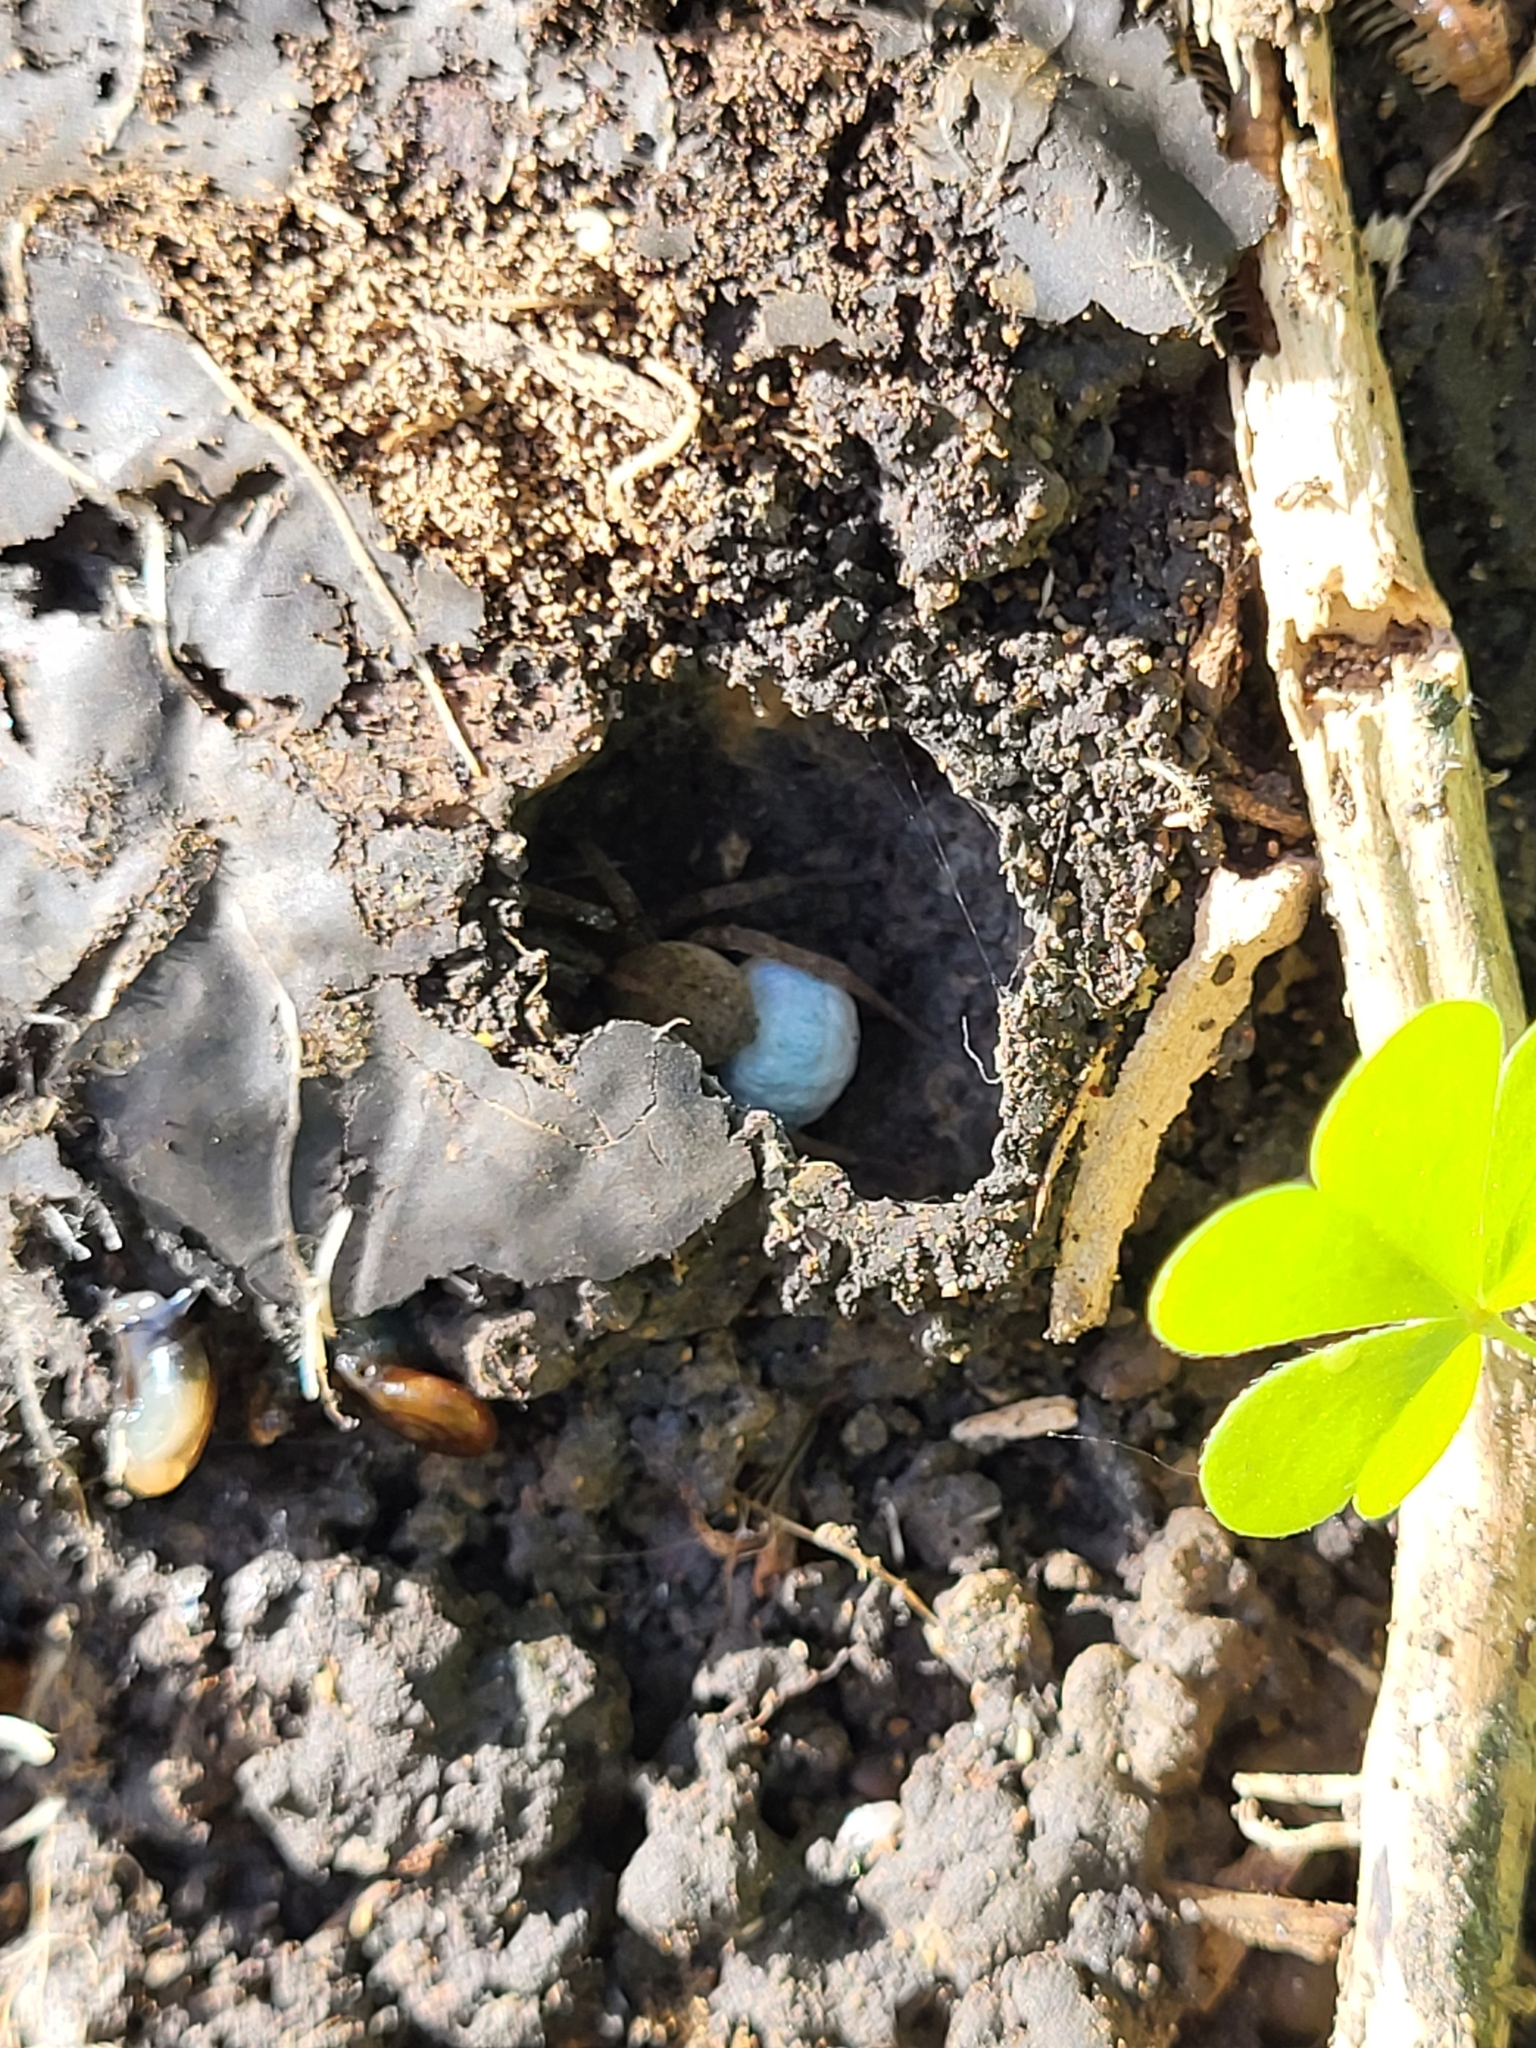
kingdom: Animalia
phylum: Arthropoda
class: Arachnida
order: Araneae
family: Lycosidae
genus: Trochosa
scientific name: Trochosa ruricola
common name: Spider
